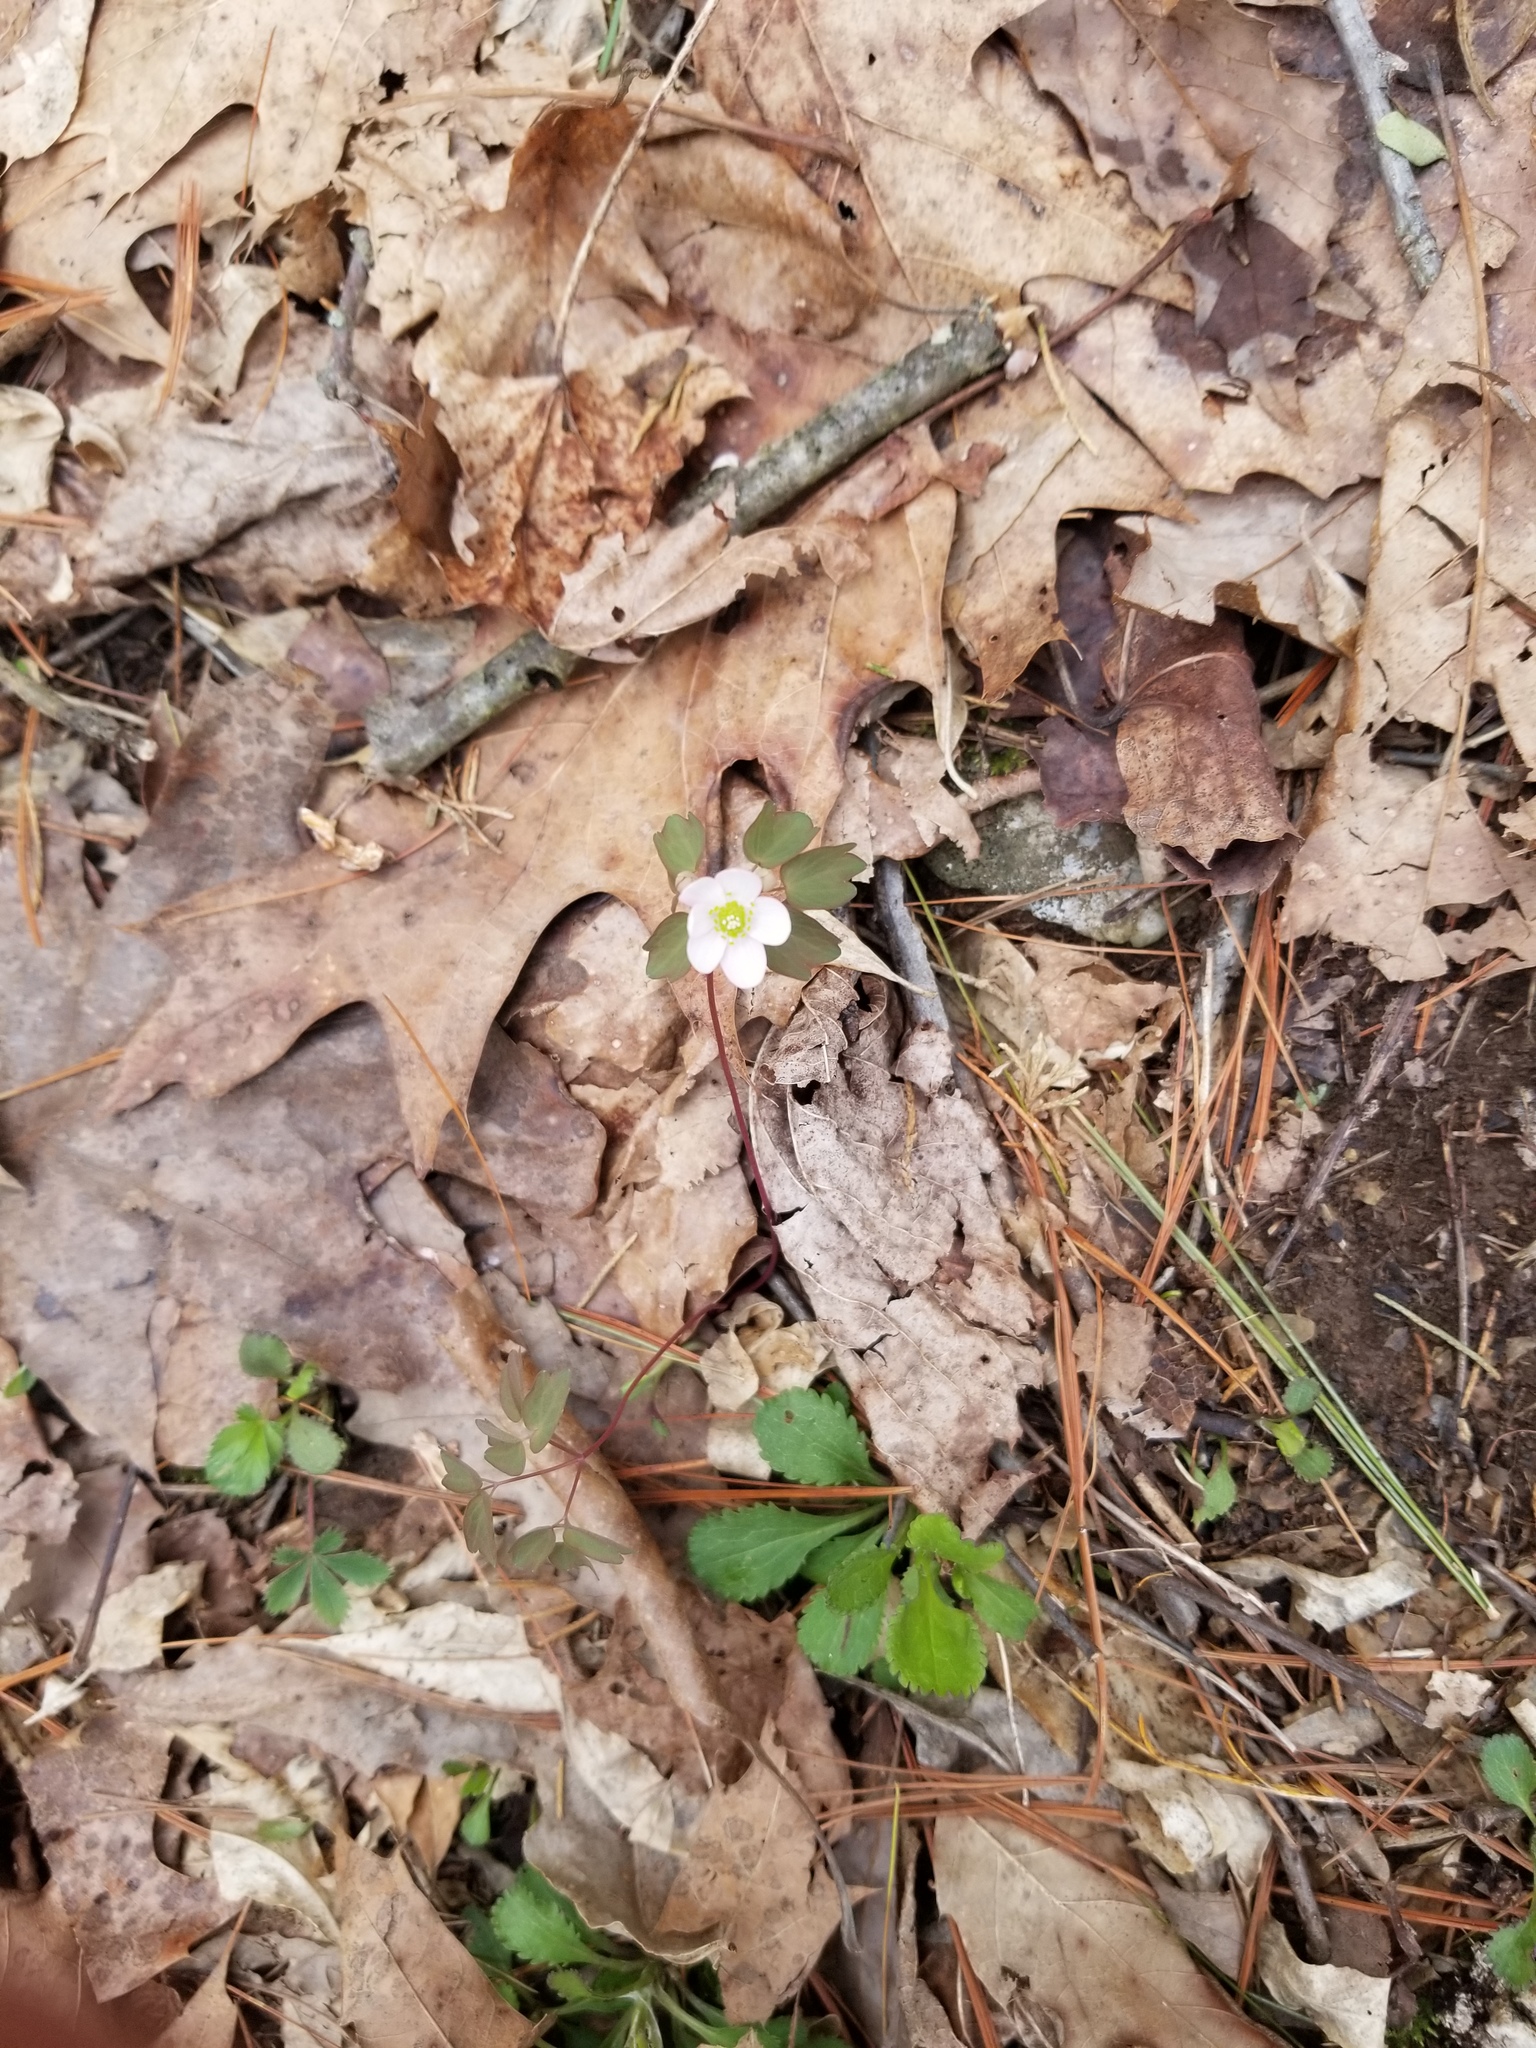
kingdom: Plantae
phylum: Tracheophyta
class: Magnoliopsida
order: Ranunculales
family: Ranunculaceae
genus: Thalictrum
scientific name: Thalictrum thalictroides
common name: Rue-anemone
